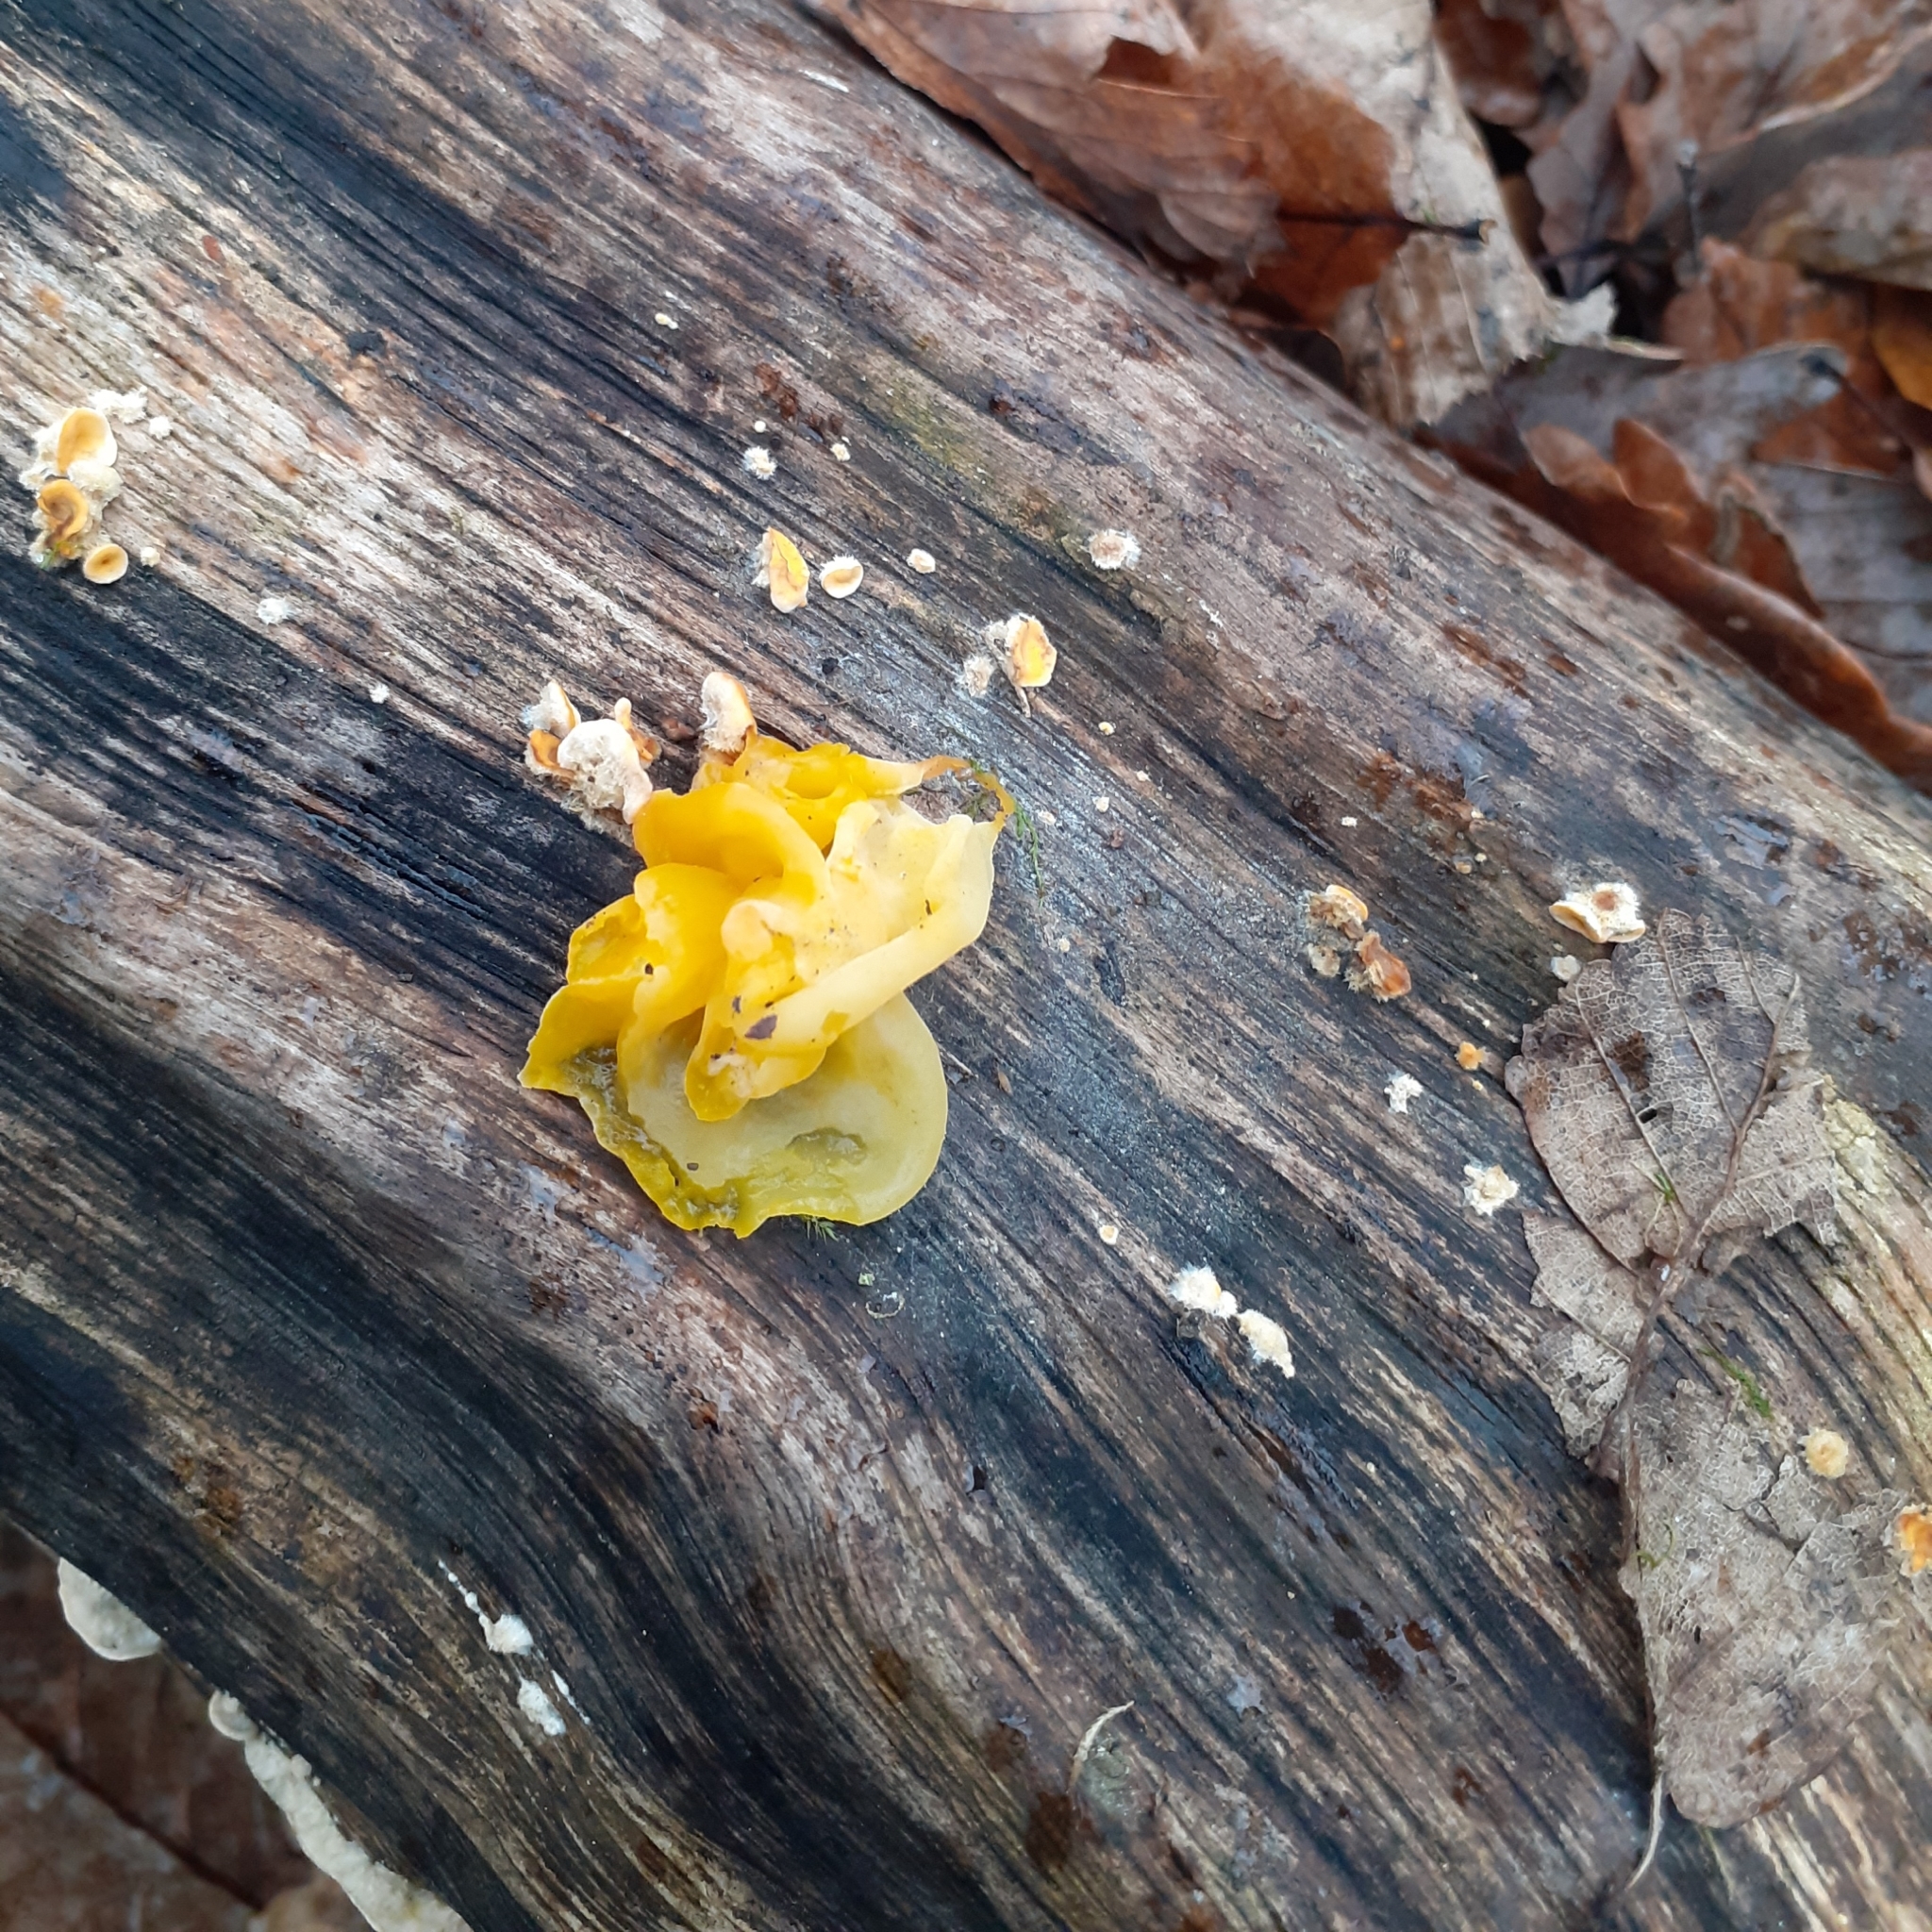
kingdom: Fungi
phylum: Basidiomycota
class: Tremellomycetes
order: Tremellales
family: Naemateliaceae
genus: Naematelia
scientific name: Naematelia aurantia
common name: Golden ear
